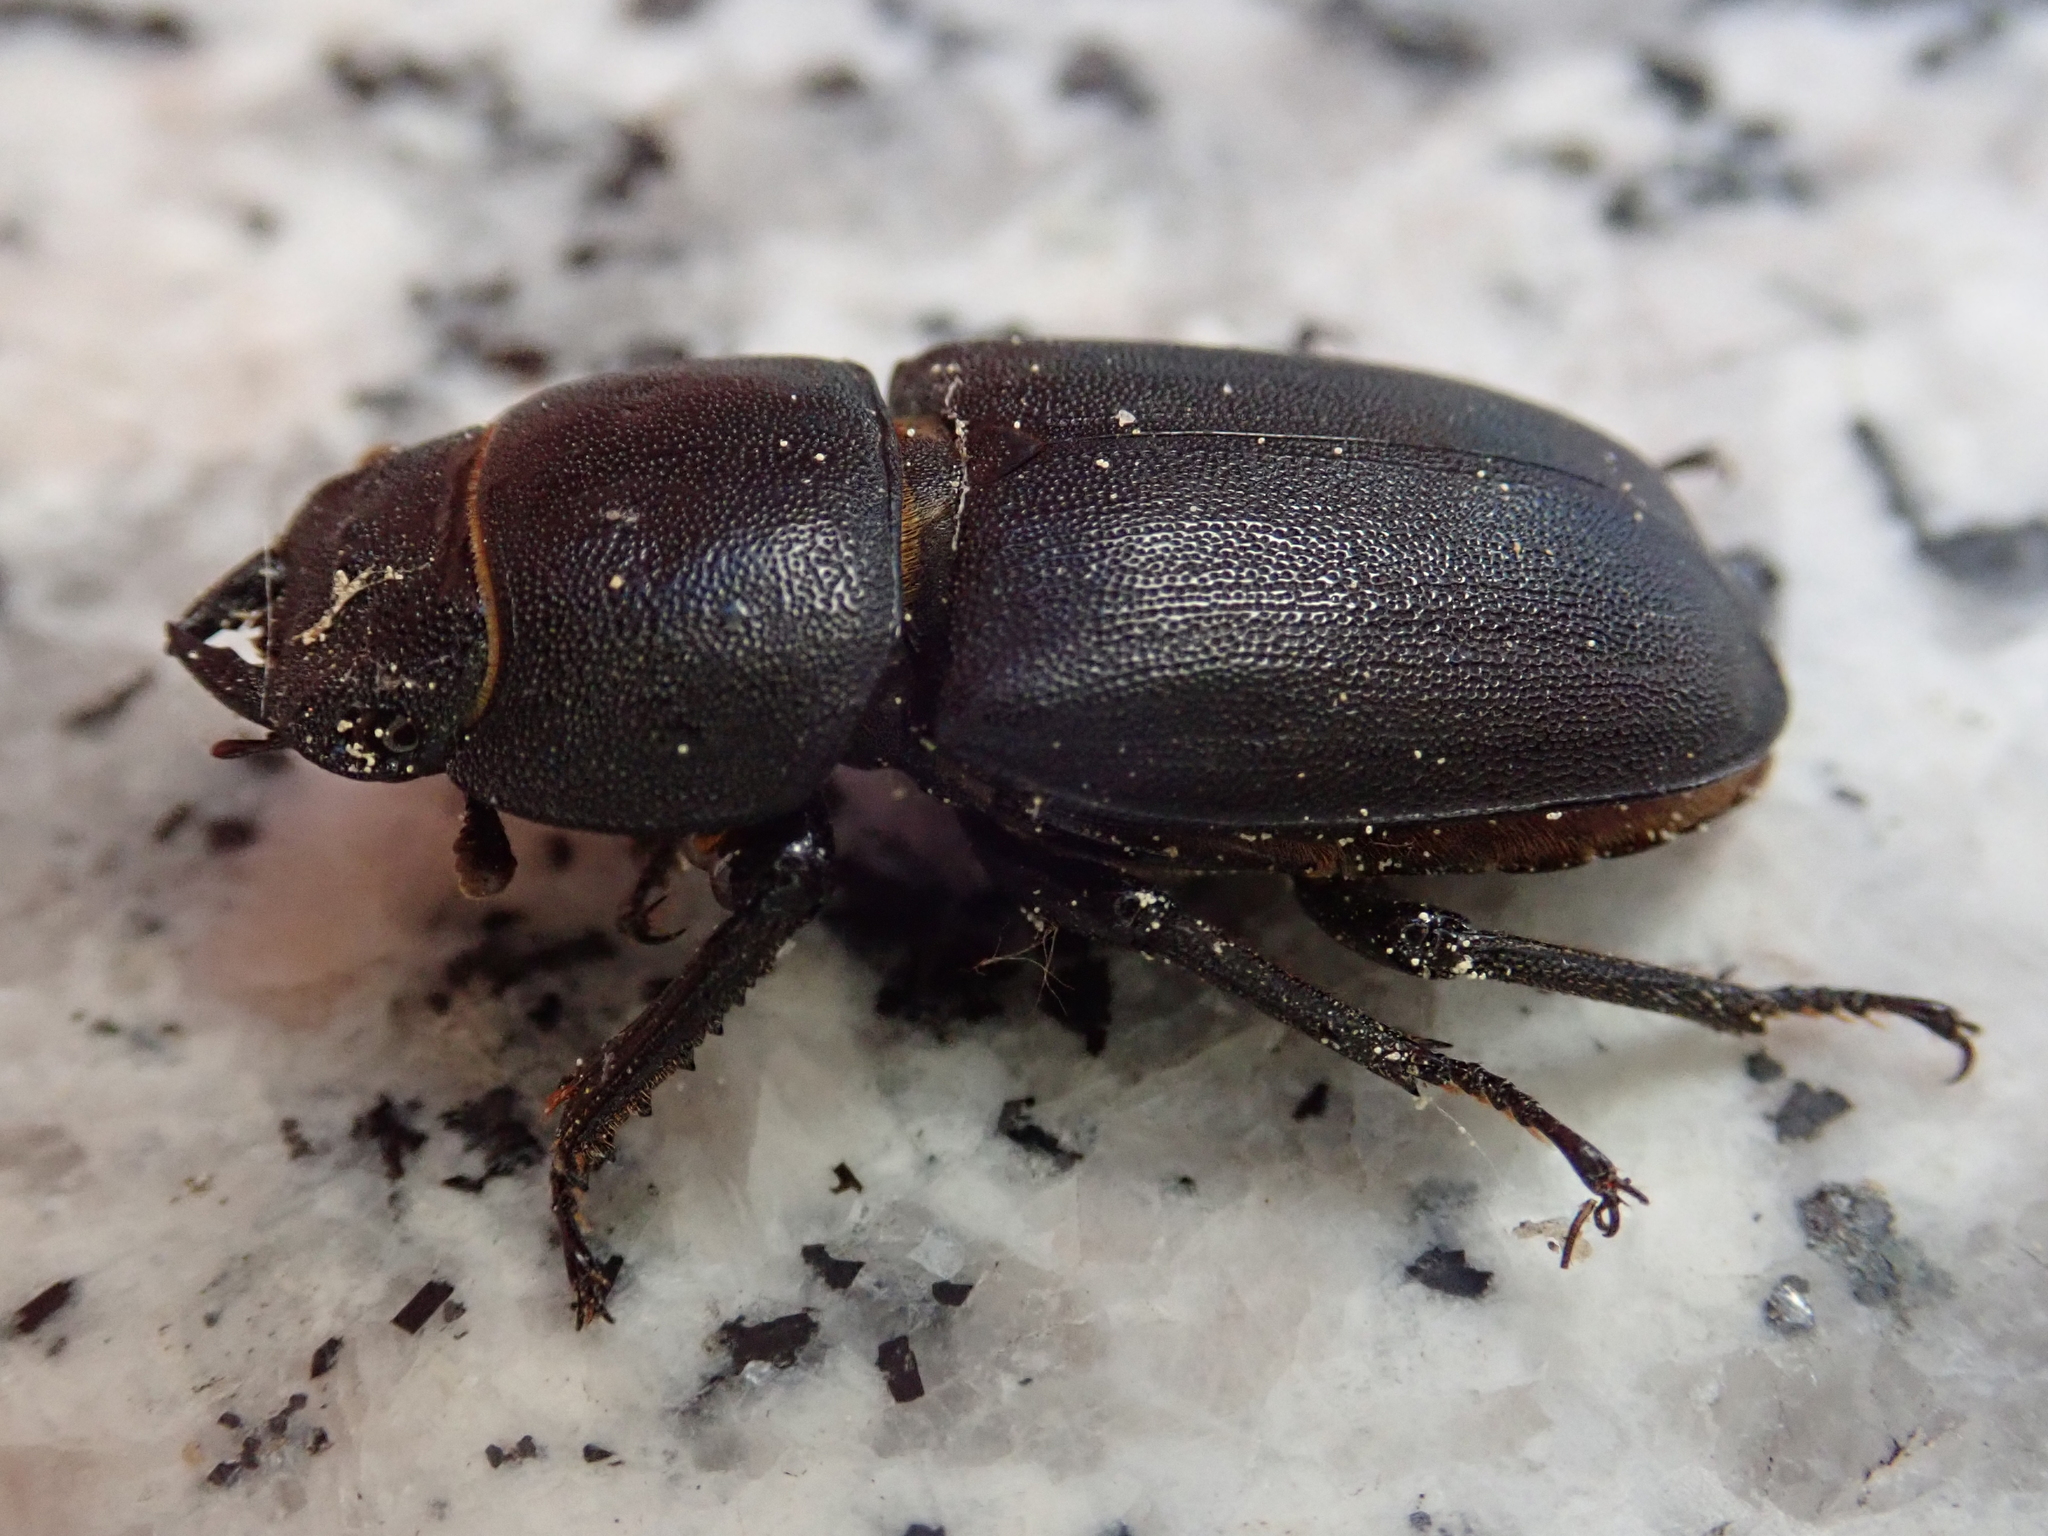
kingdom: Animalia
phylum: Arthropoda
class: Insecta
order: Coleoptera
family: Lucanidae
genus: Dorcus
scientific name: Dorcus parallelipipedus
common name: Lesser stag beetle
